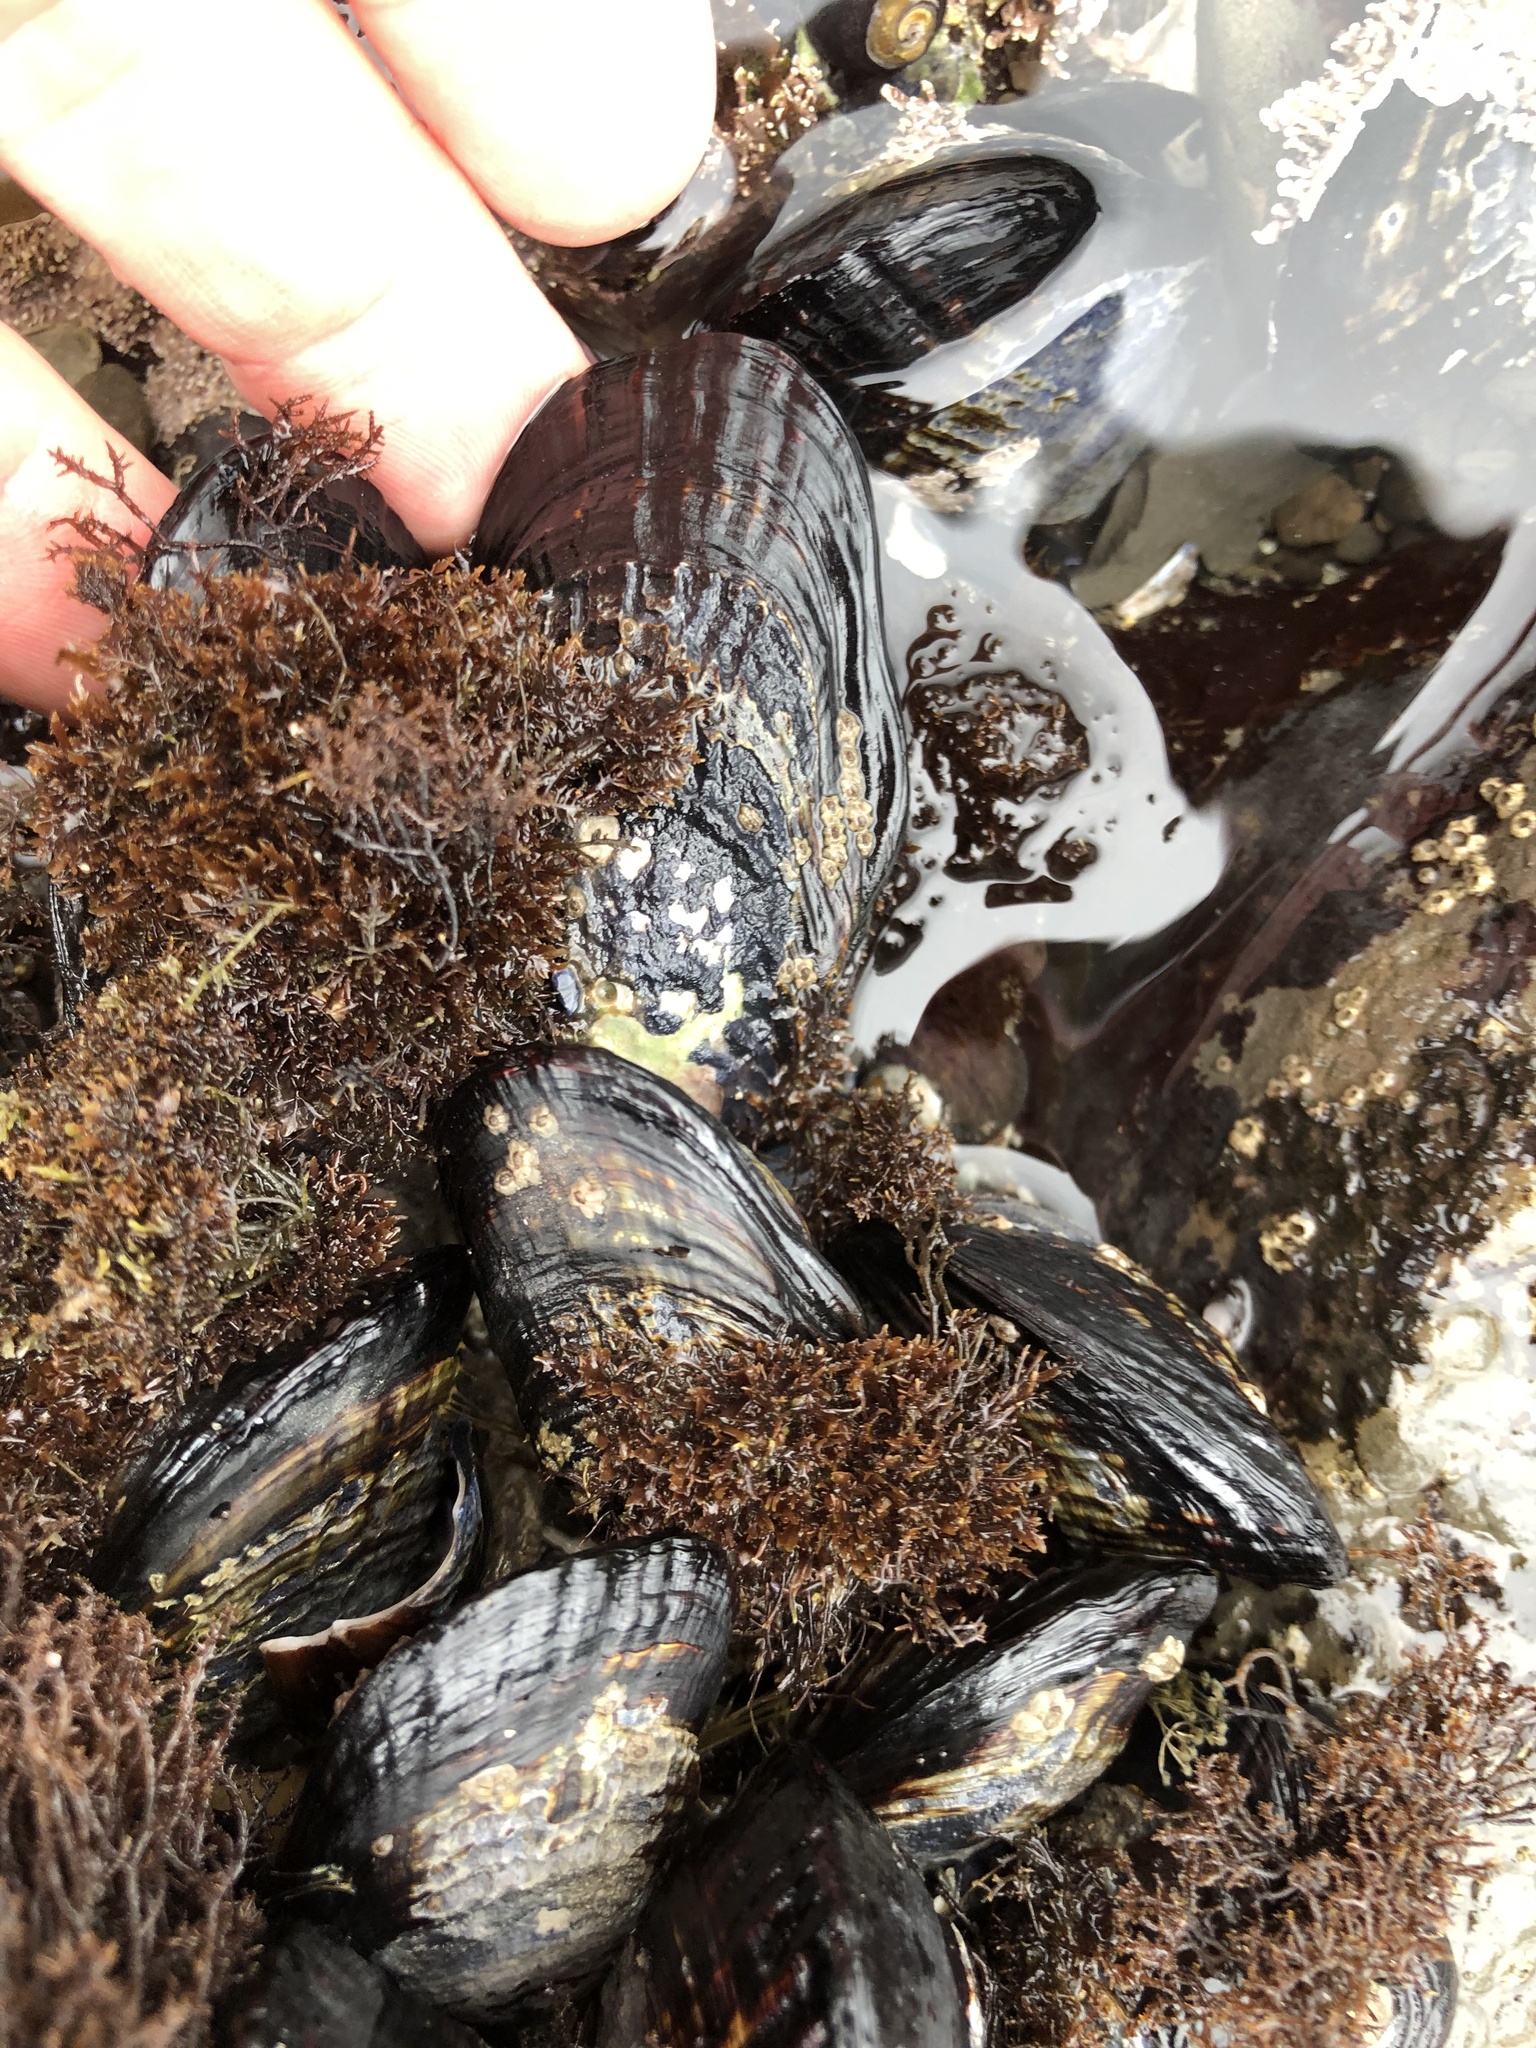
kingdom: Animalia
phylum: Mollusca
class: Bivalvia
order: Mytilida
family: Mytilidae
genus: Mytilus
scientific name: Mytilus californianus
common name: California mussel
